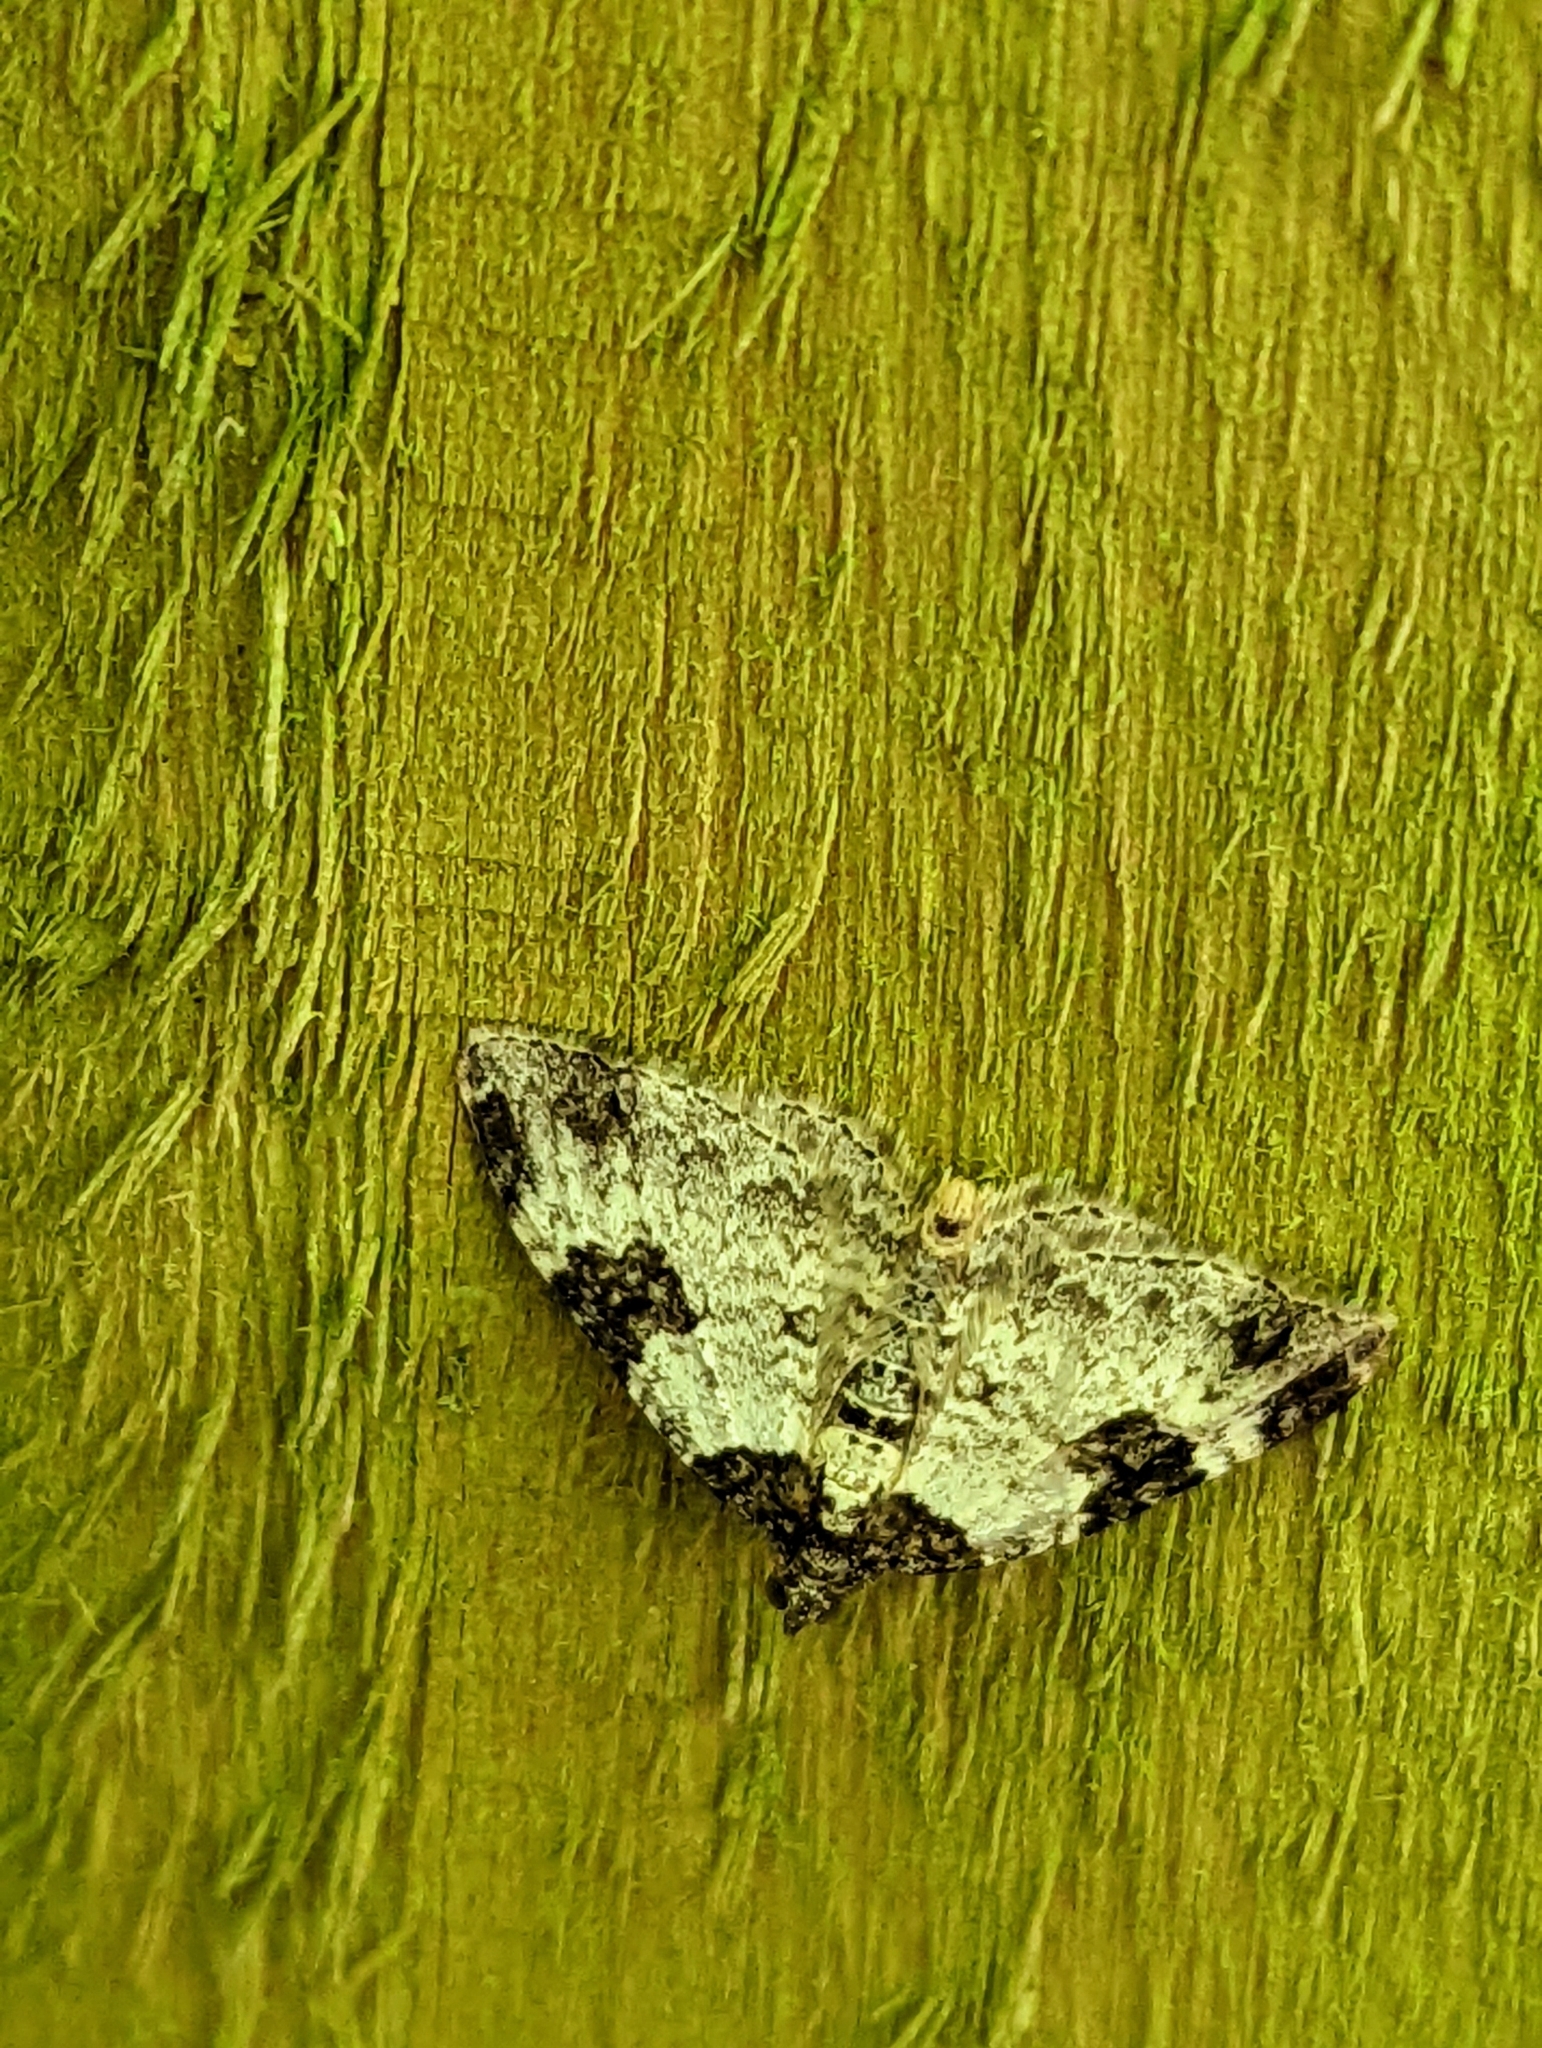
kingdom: Animalia
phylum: Arthropoda
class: Insecta
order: Lepidoptera
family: Geometridae
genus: Xanthorhoe
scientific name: Xanthorhoe fluctuata
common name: Garden carpet
